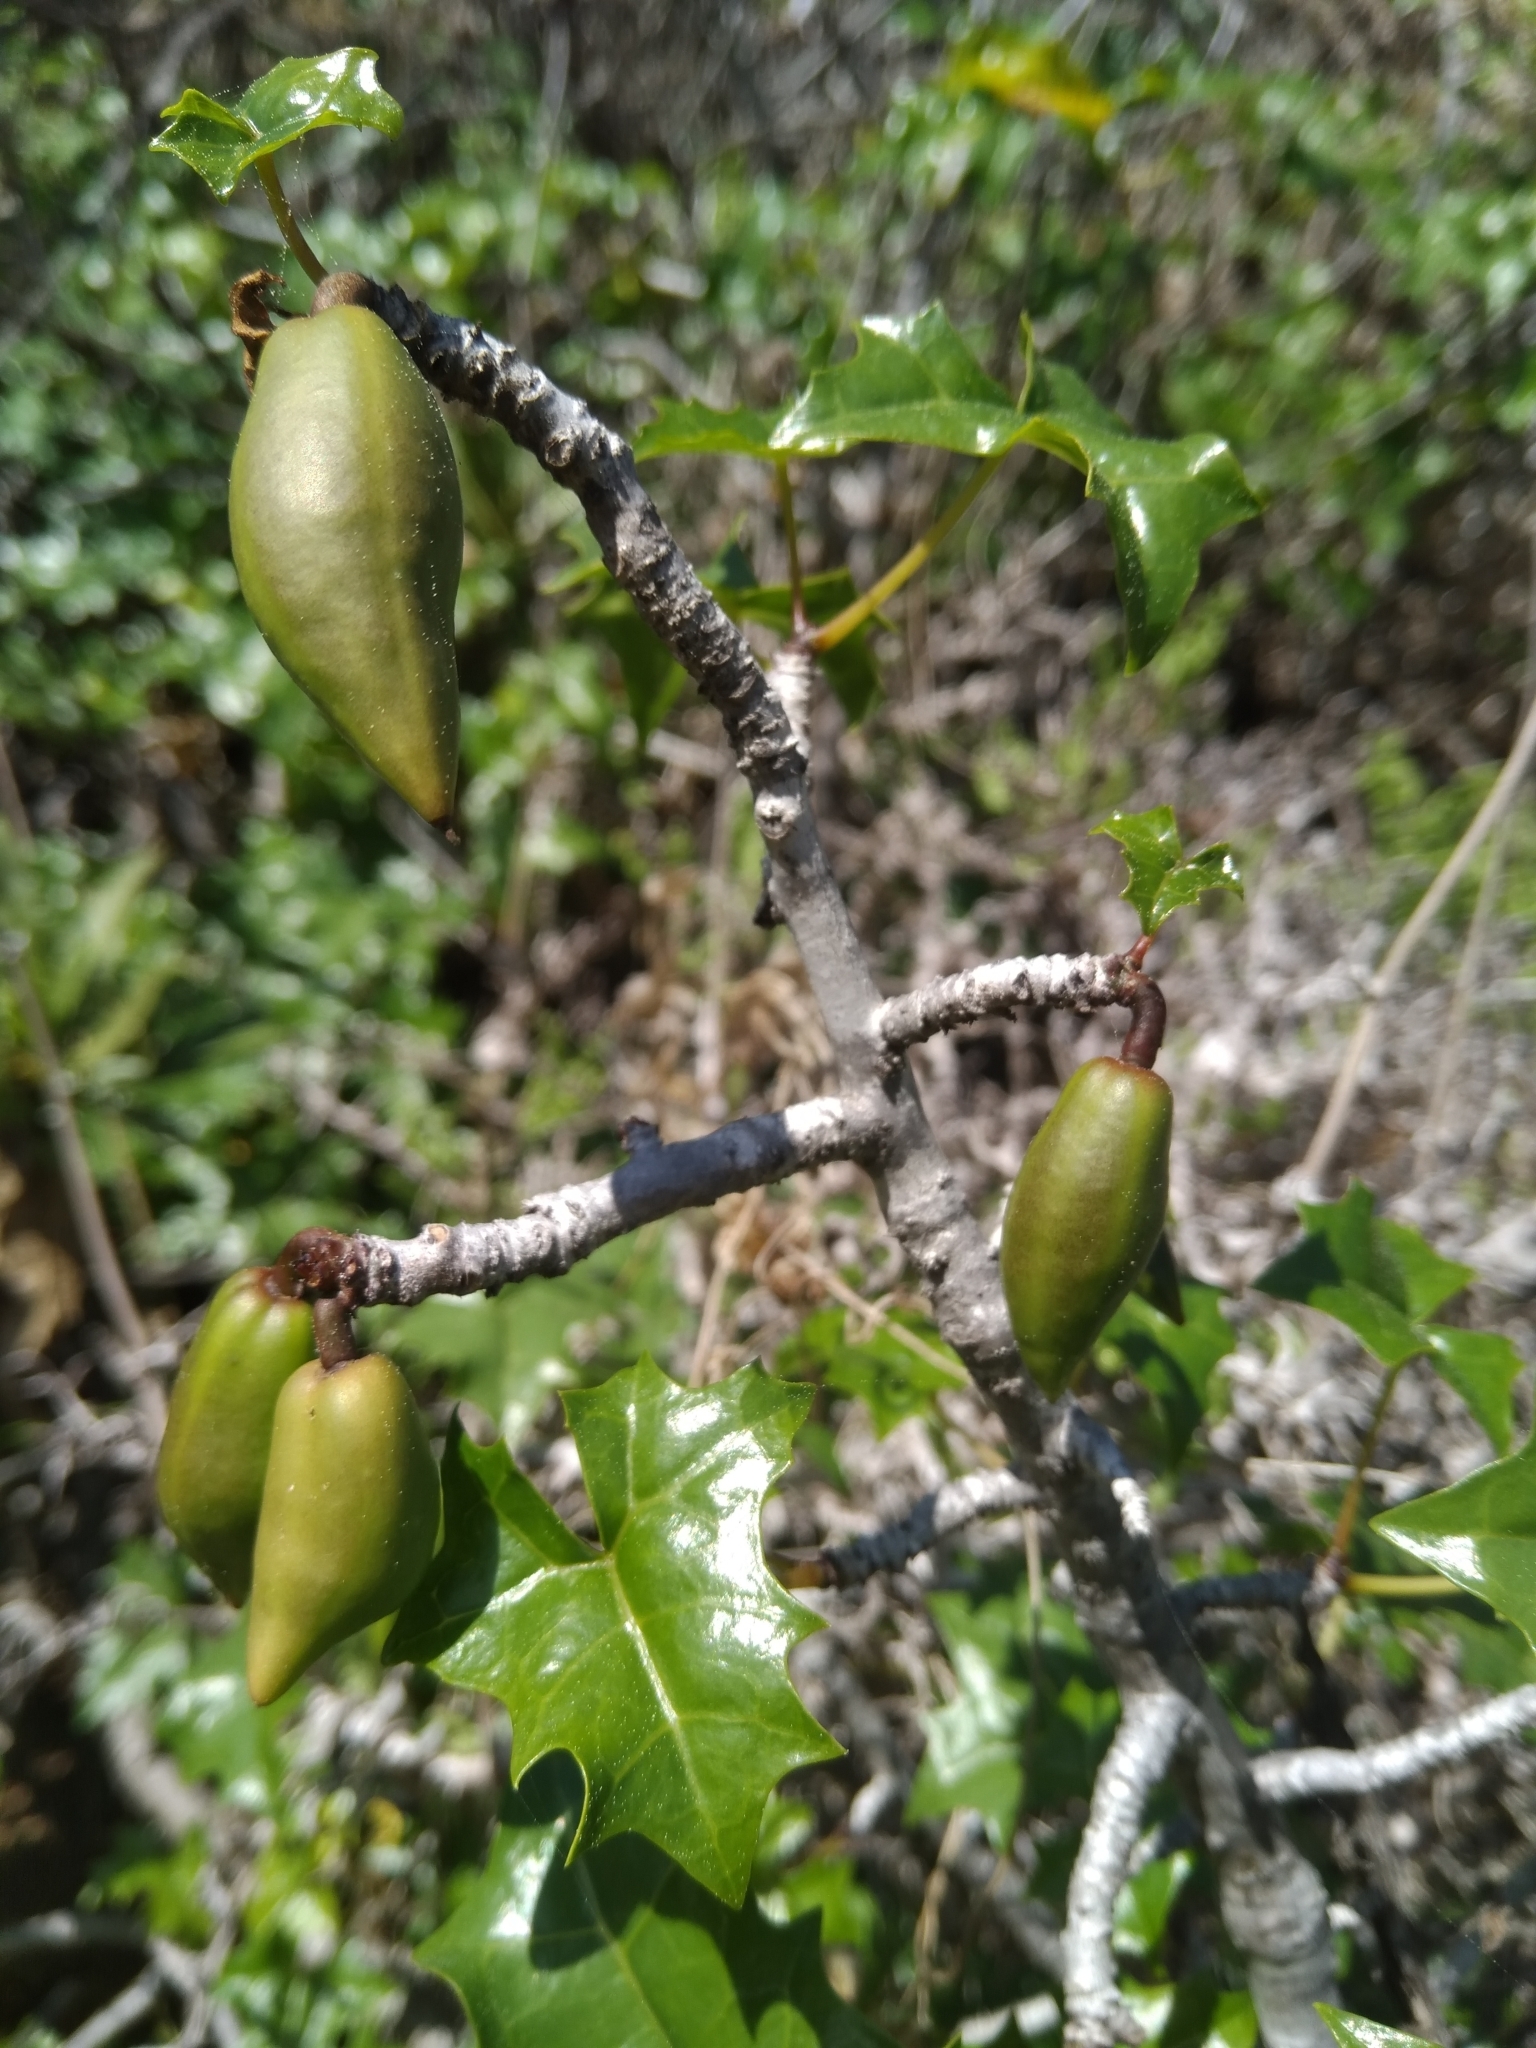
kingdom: Plantae
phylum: Tracheophyta
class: Magnoliopsida
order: Brassicales
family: Caricaceae
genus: Vasconcellea
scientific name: Vasconcellea chilensis
